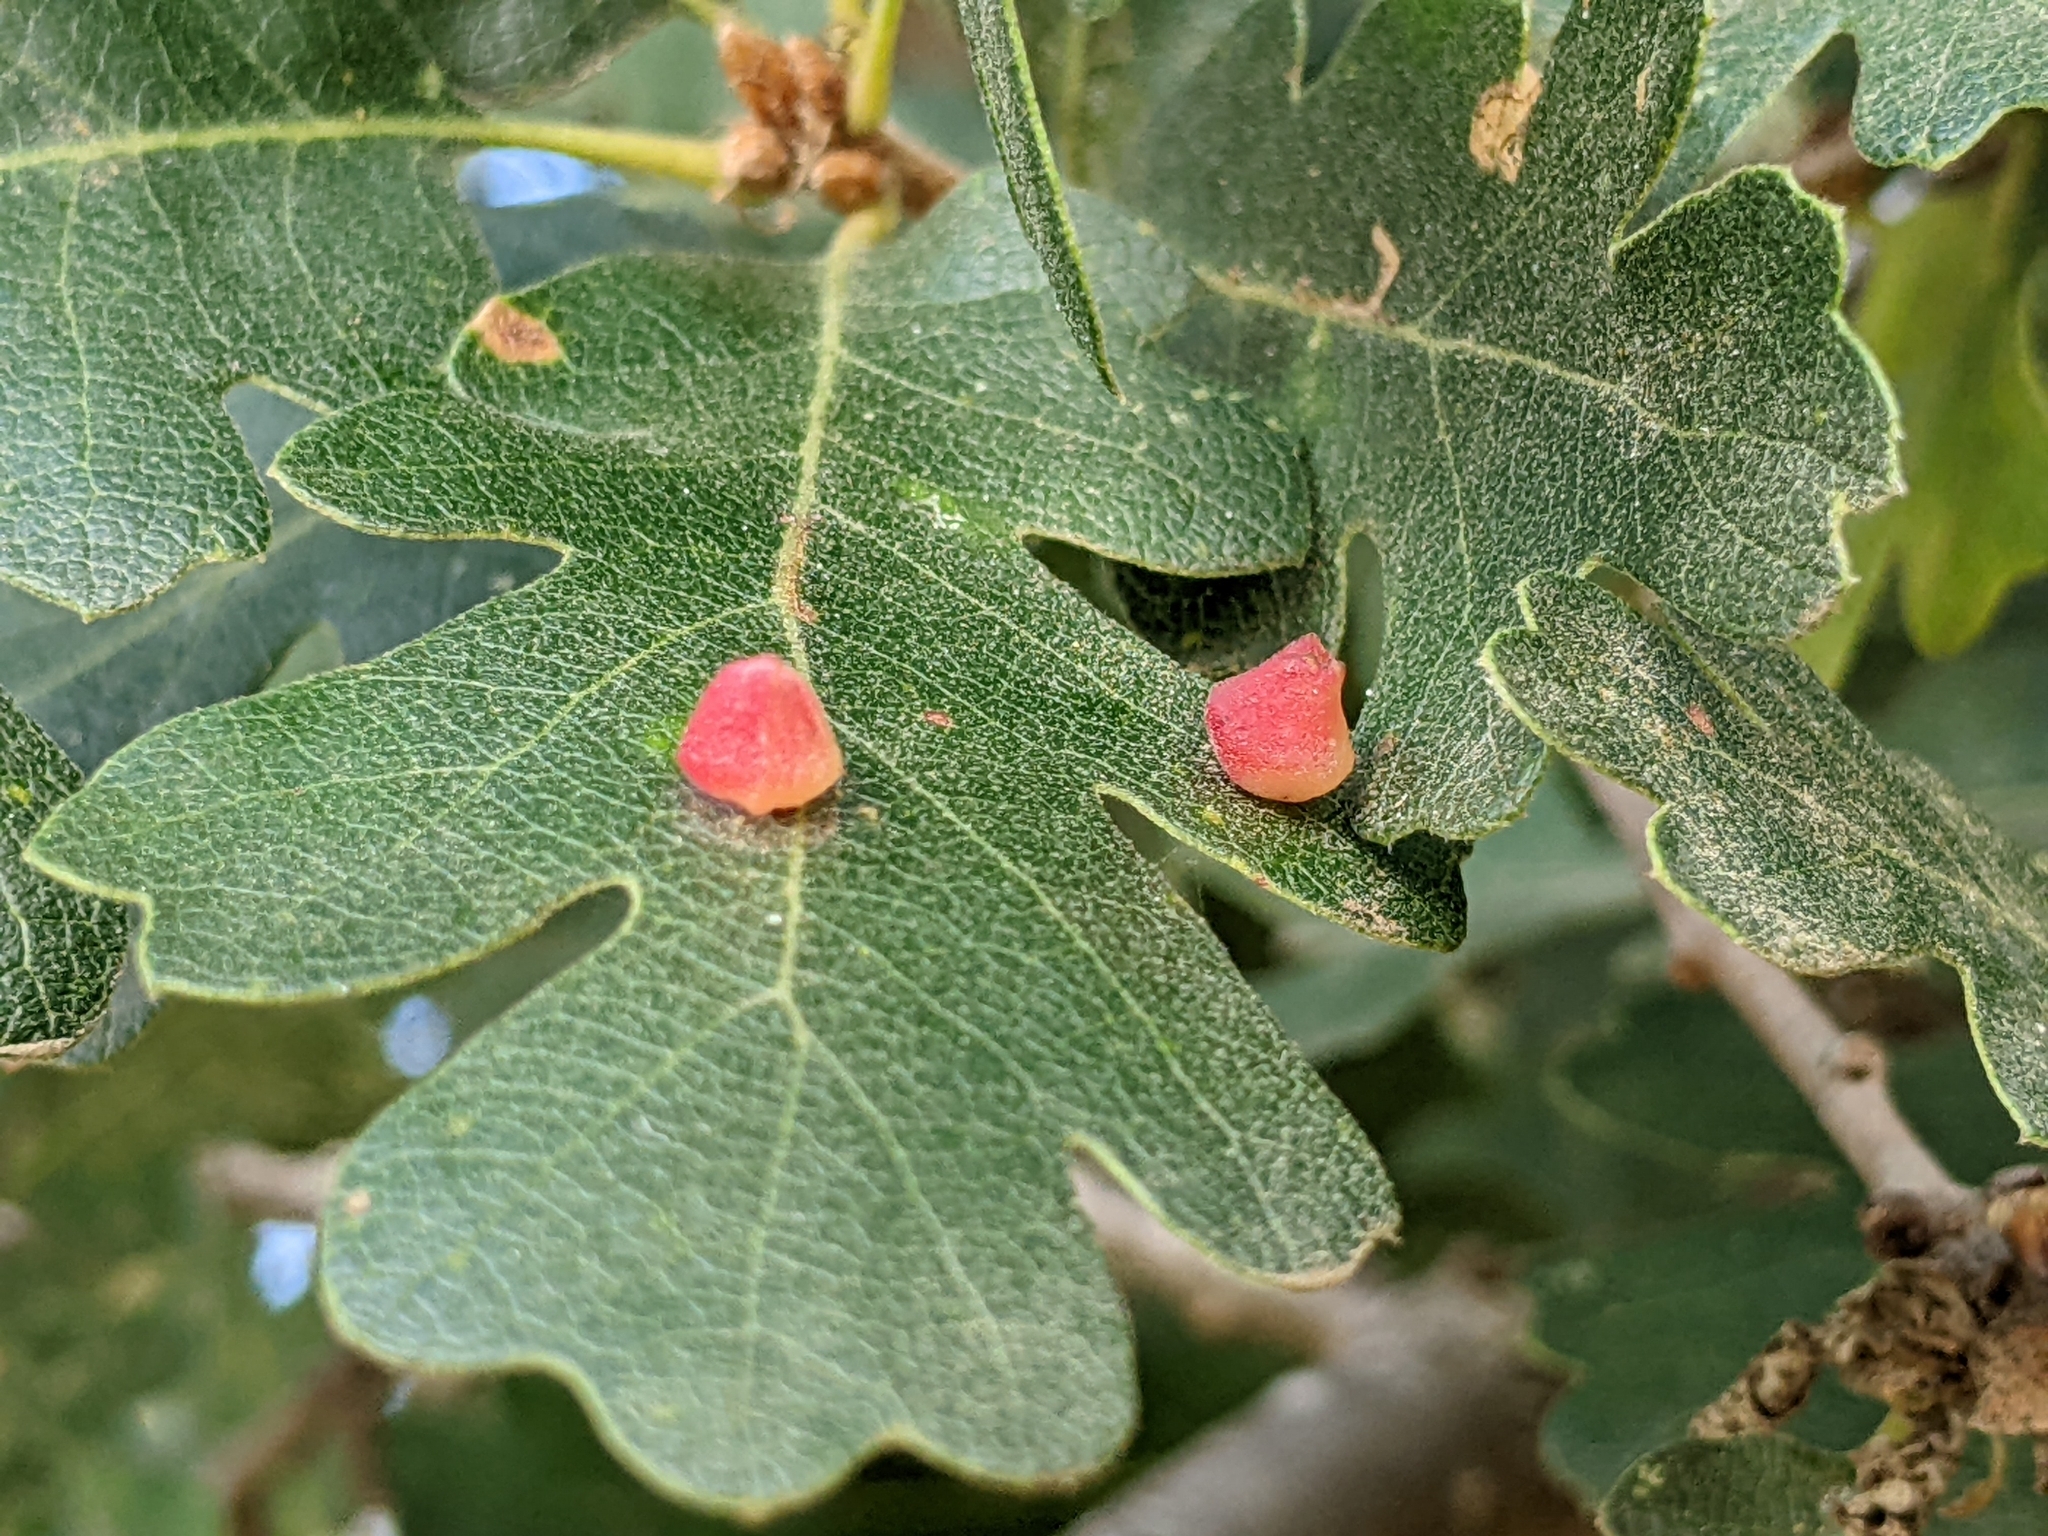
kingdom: Animalia
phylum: Arthropoda
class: Insecta
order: Hymenoptera
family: Cynipidae
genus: Andricus
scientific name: Andricus
